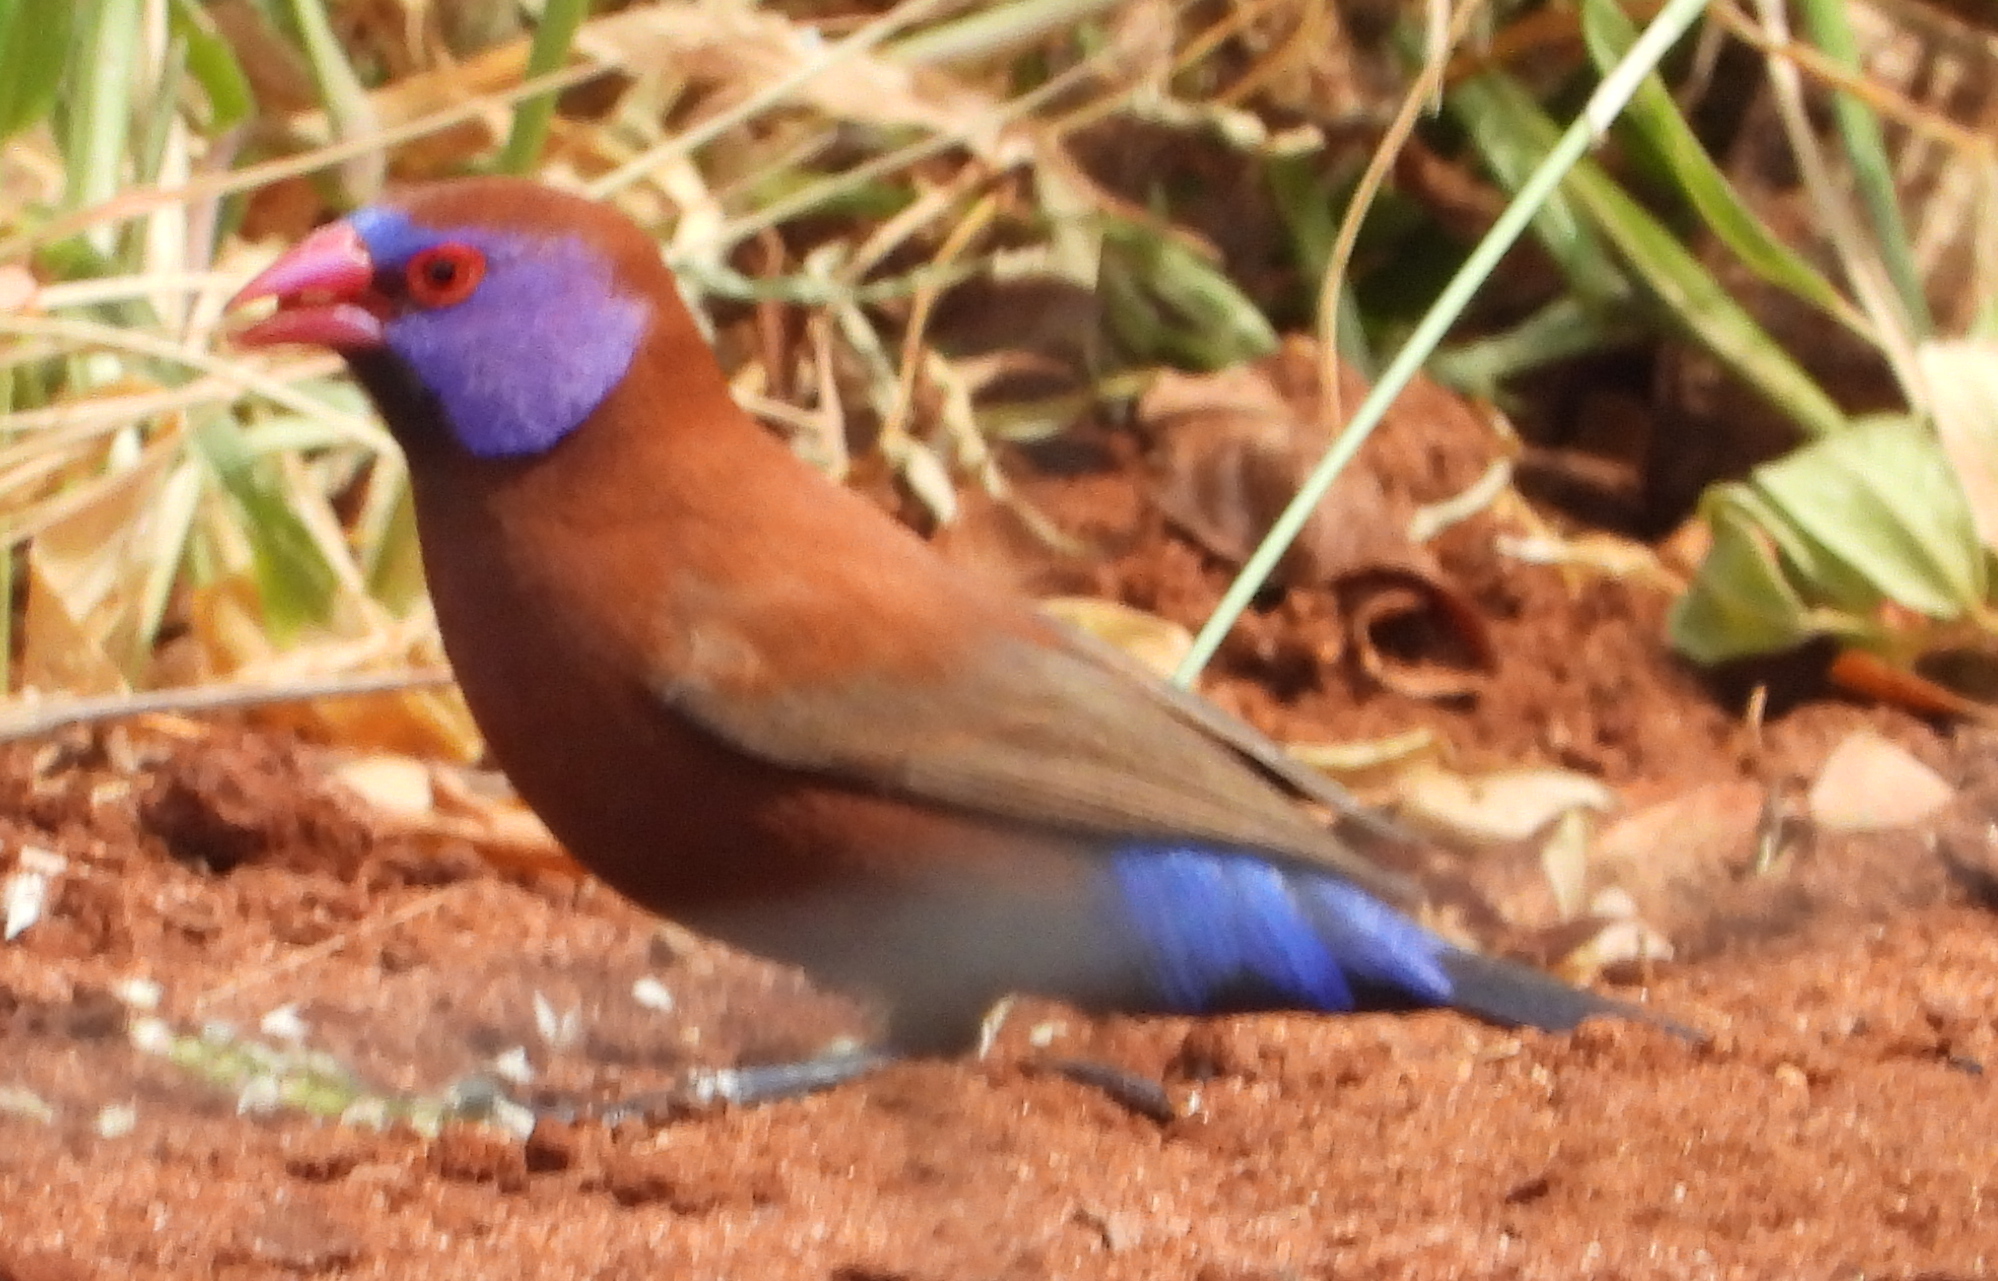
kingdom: Animalia
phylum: Chordata
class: Aves
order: Passeriformes
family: Estrildidae
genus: Uraeginthus
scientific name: Uraeginthus granatinus
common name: Violet-eared waxbill
